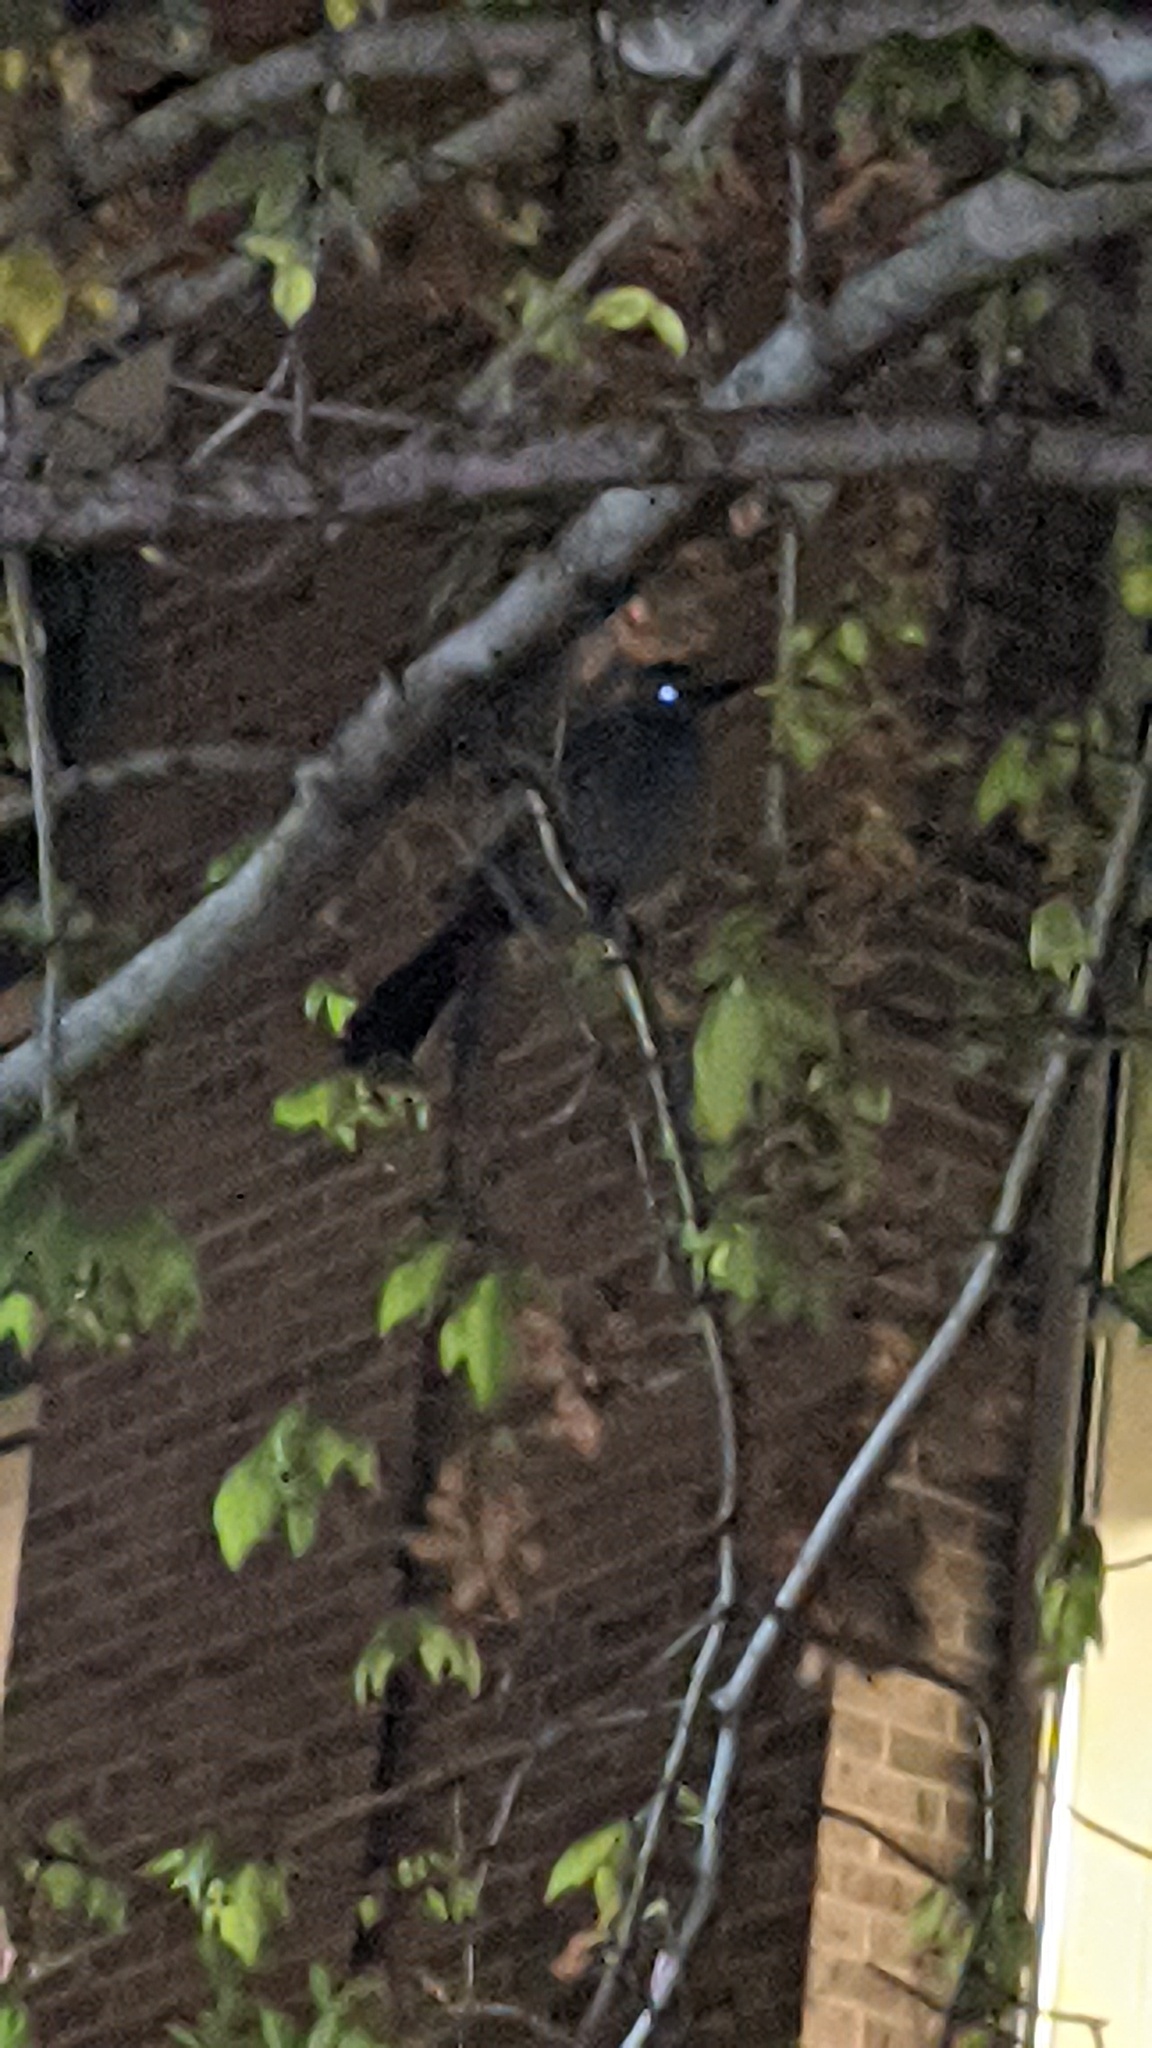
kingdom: Animalia
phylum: Chordata
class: Aves
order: Passeriformes
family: Mimidae
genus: Dumetella
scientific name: Dumetella carolinensis
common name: Gray catbird
